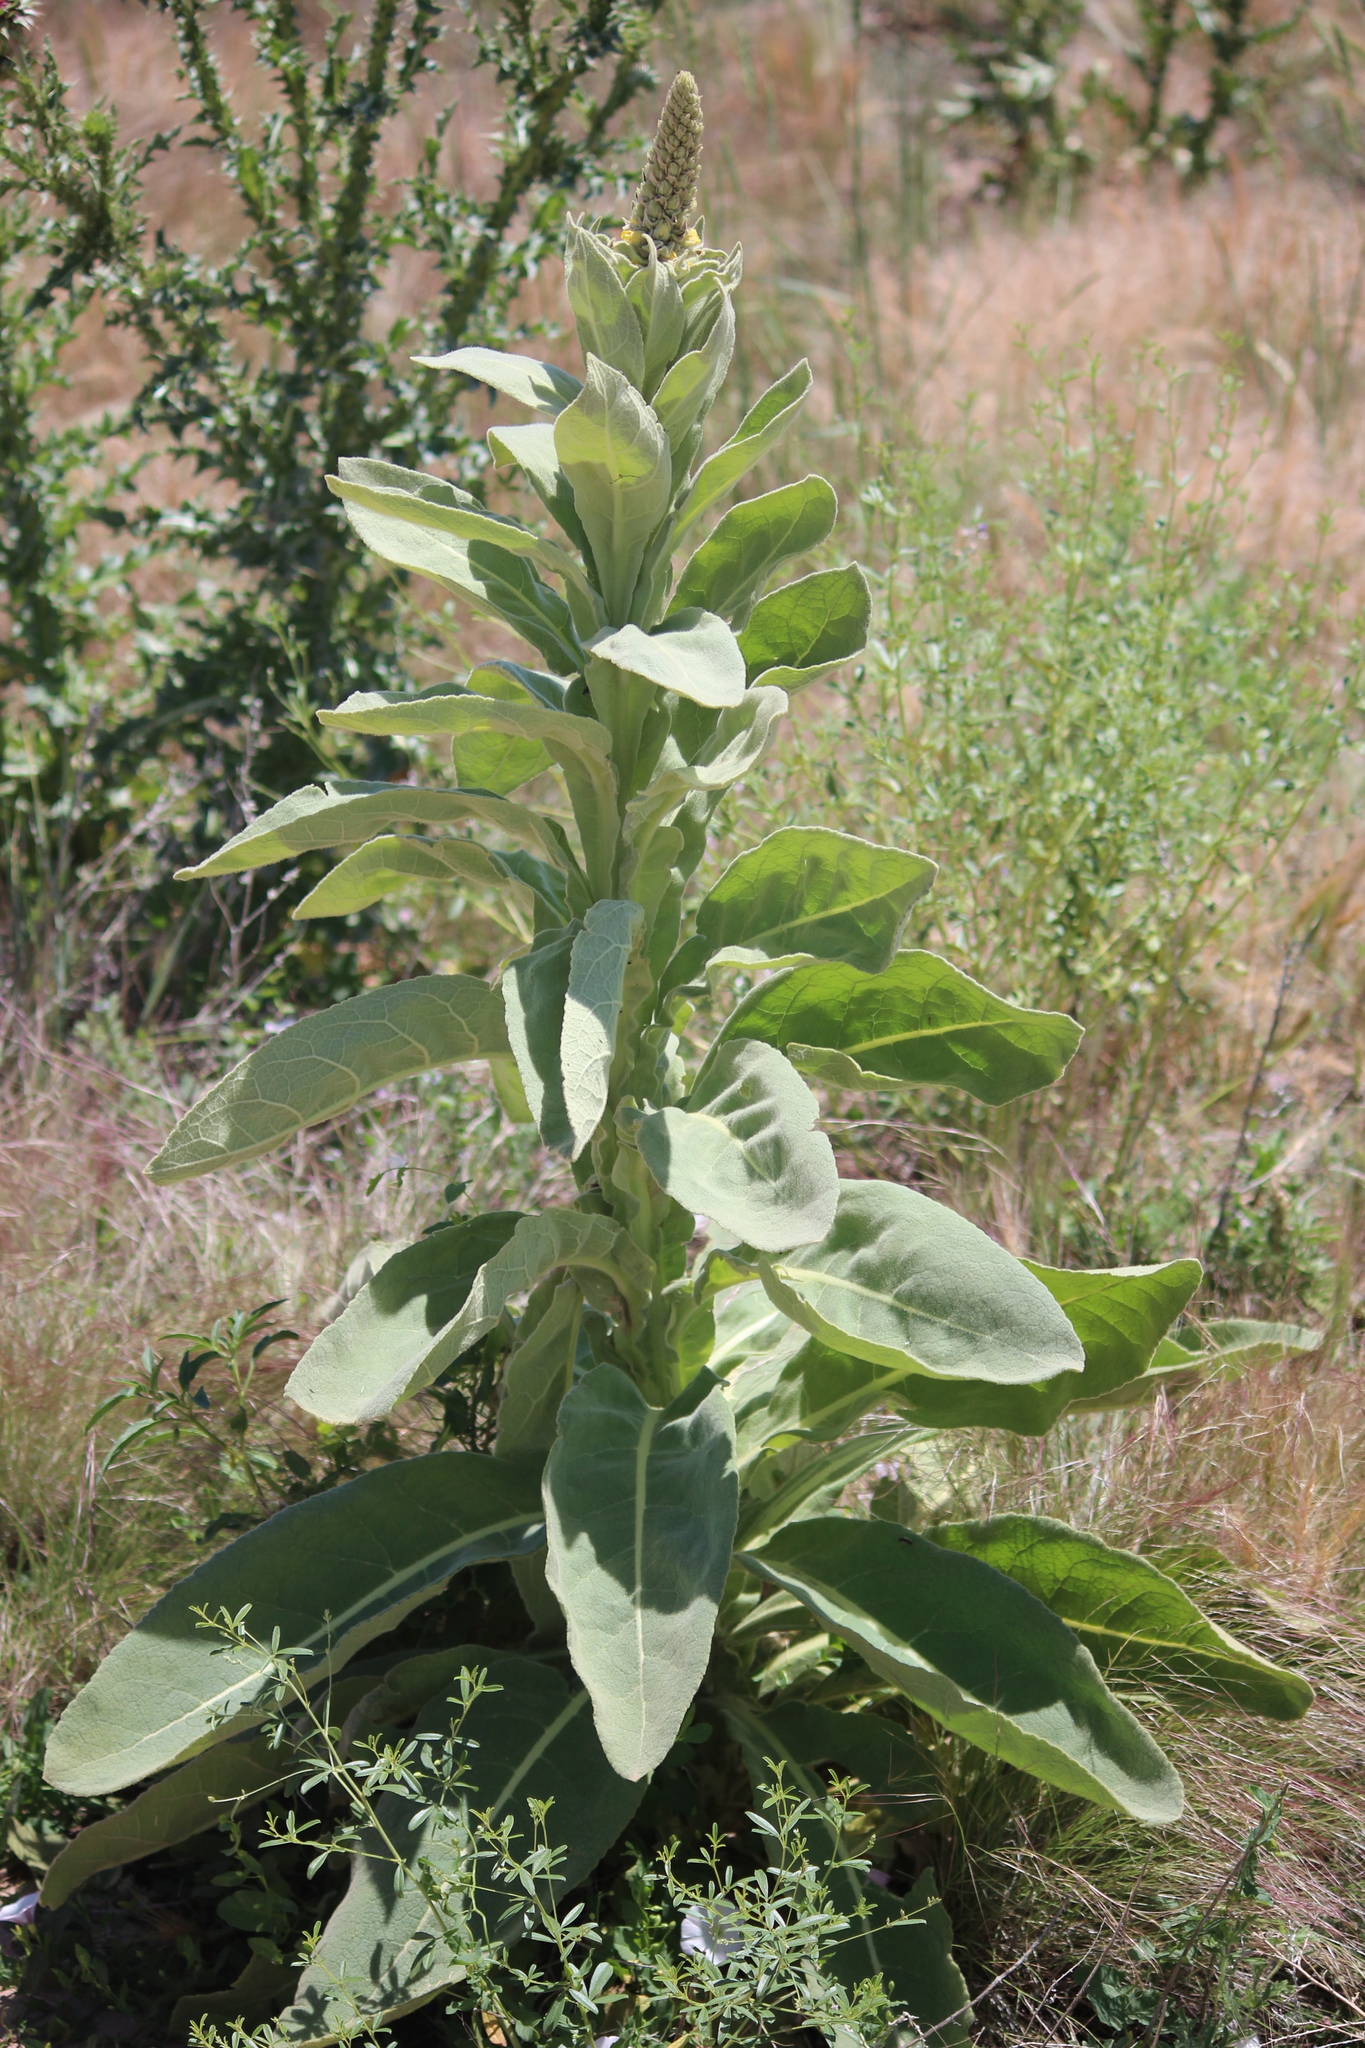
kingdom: Plantae
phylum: Tracheophyta
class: Magnoliopsida
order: Lamiales
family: Scrophulariaceae
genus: Verbascum
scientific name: Verbascum thapsus
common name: Common mullein
